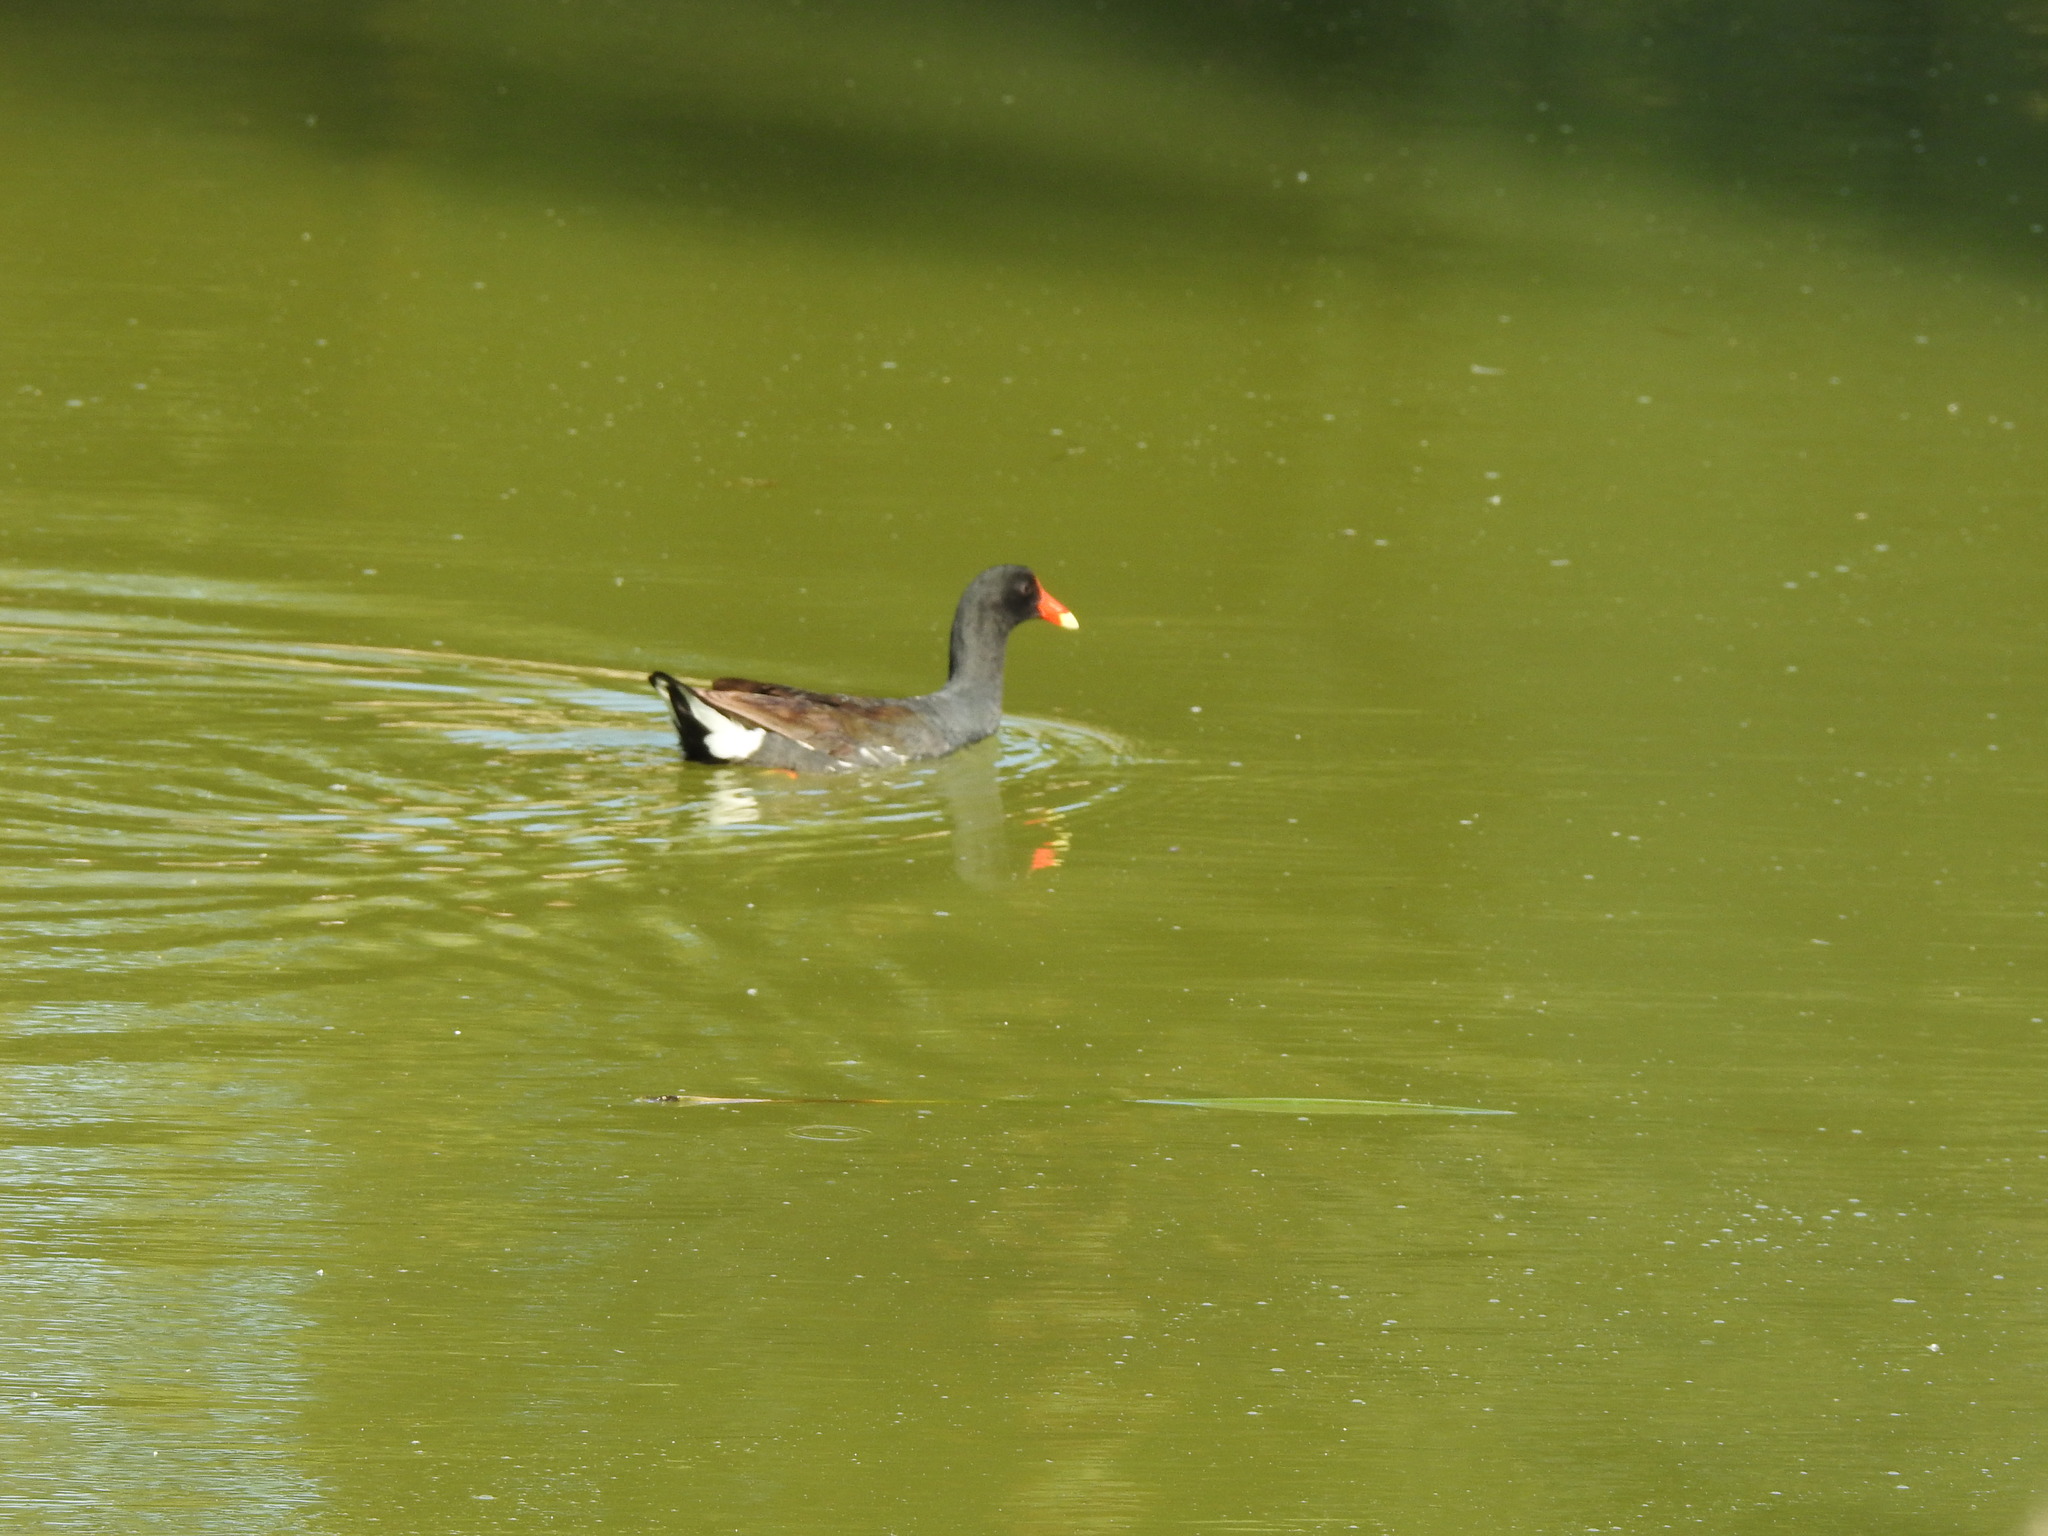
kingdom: Animalia
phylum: Chordata
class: Aves
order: Gruiformes
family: Rallidae
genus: Gallinula
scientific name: Gallinula chloropus
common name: Common moorhen
